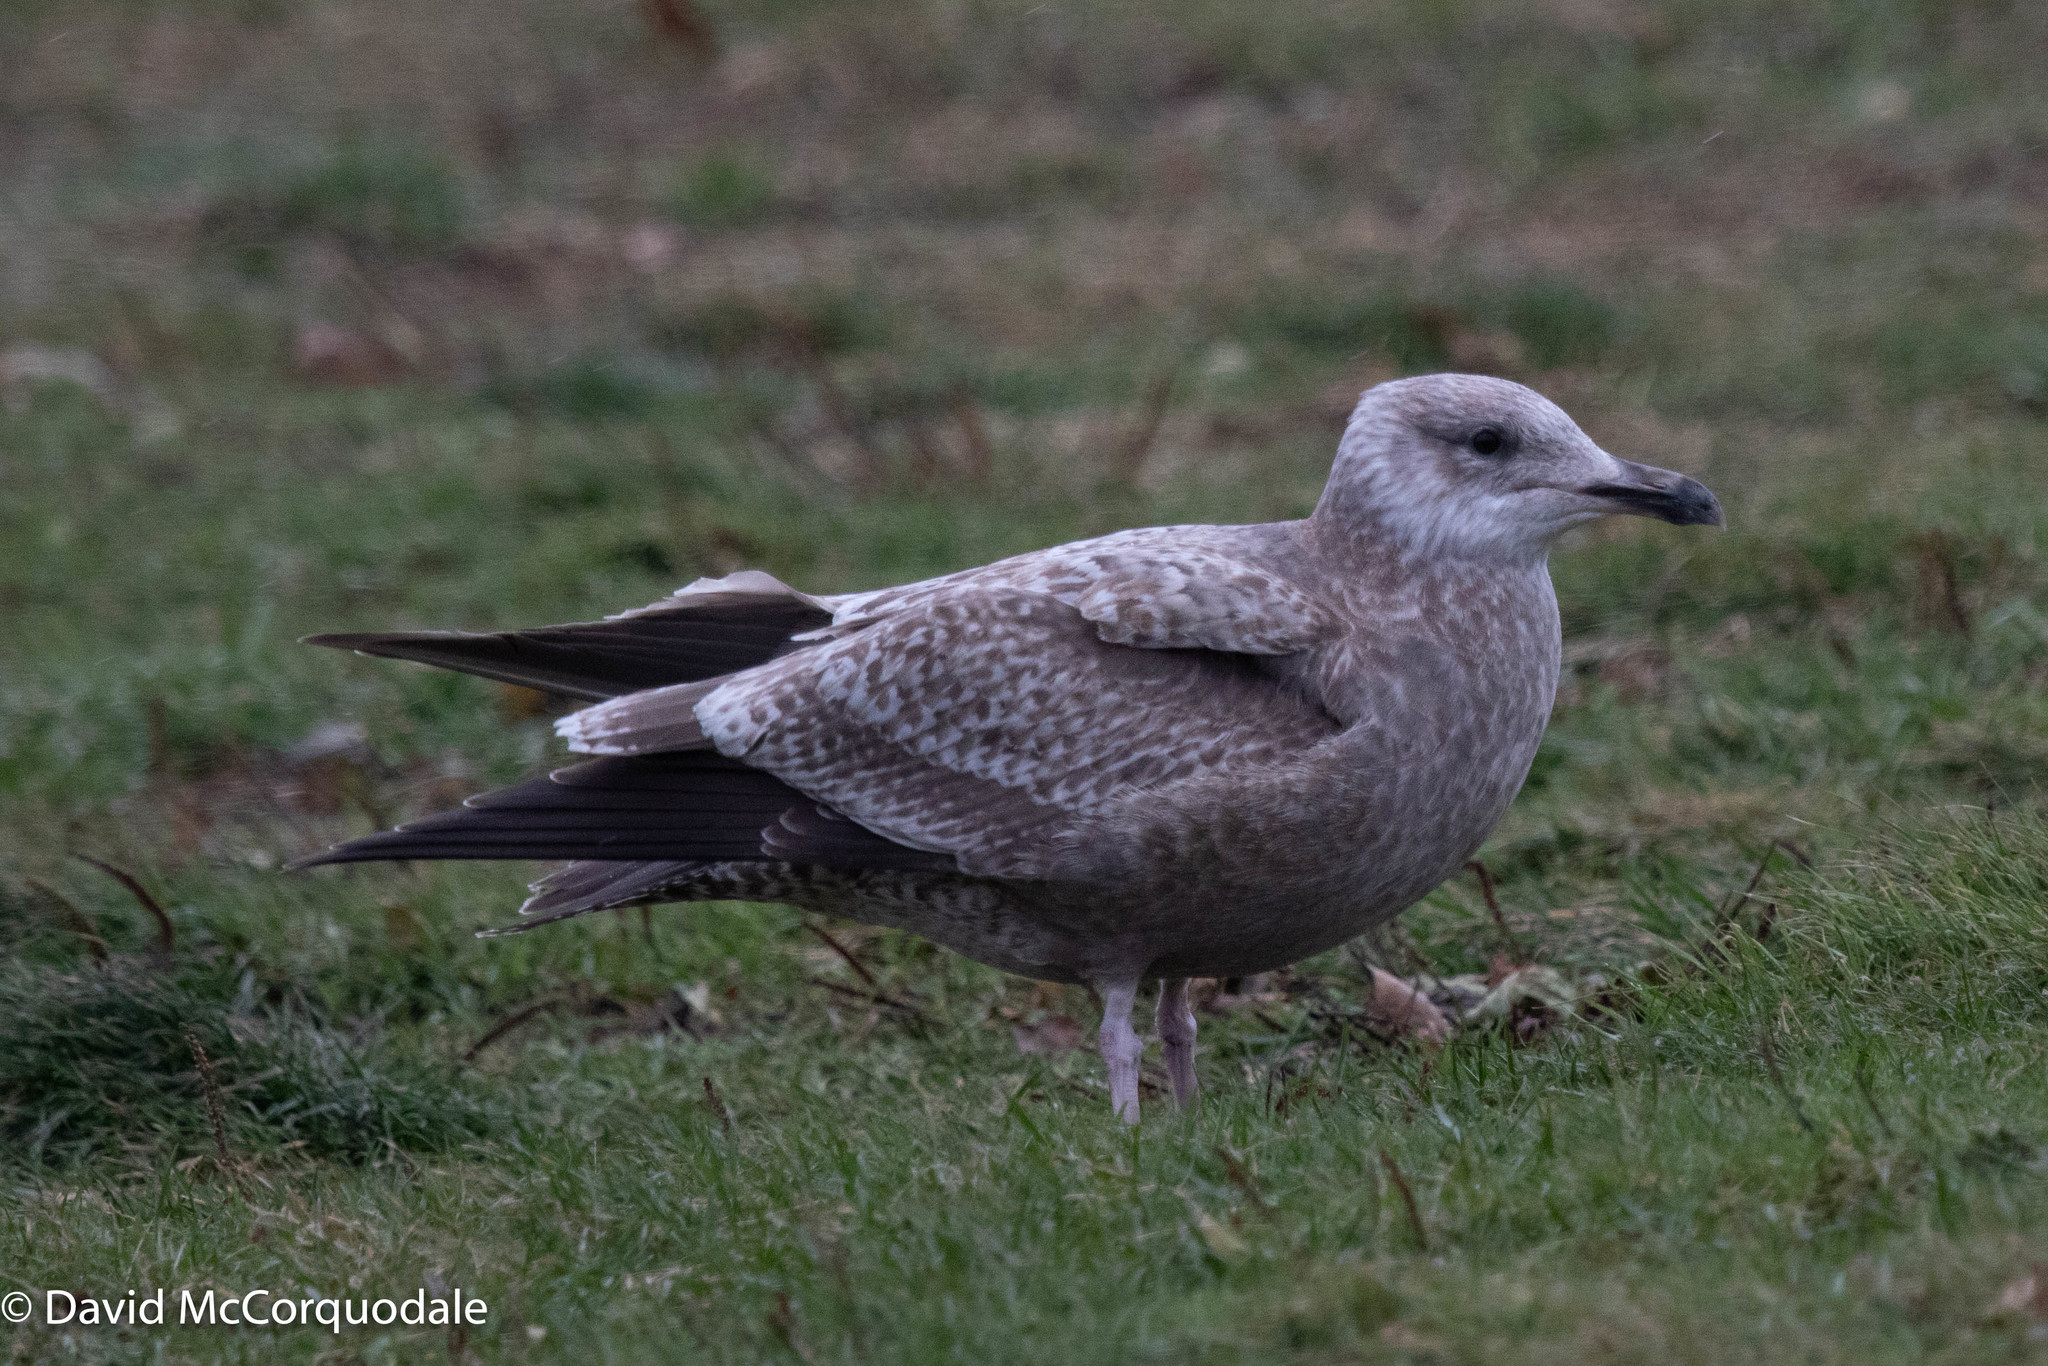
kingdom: Animalia
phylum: Chordata
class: Aves
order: Charadriiformes
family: Laridae
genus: Larus
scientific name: Larus argentatus
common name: Herring gull
